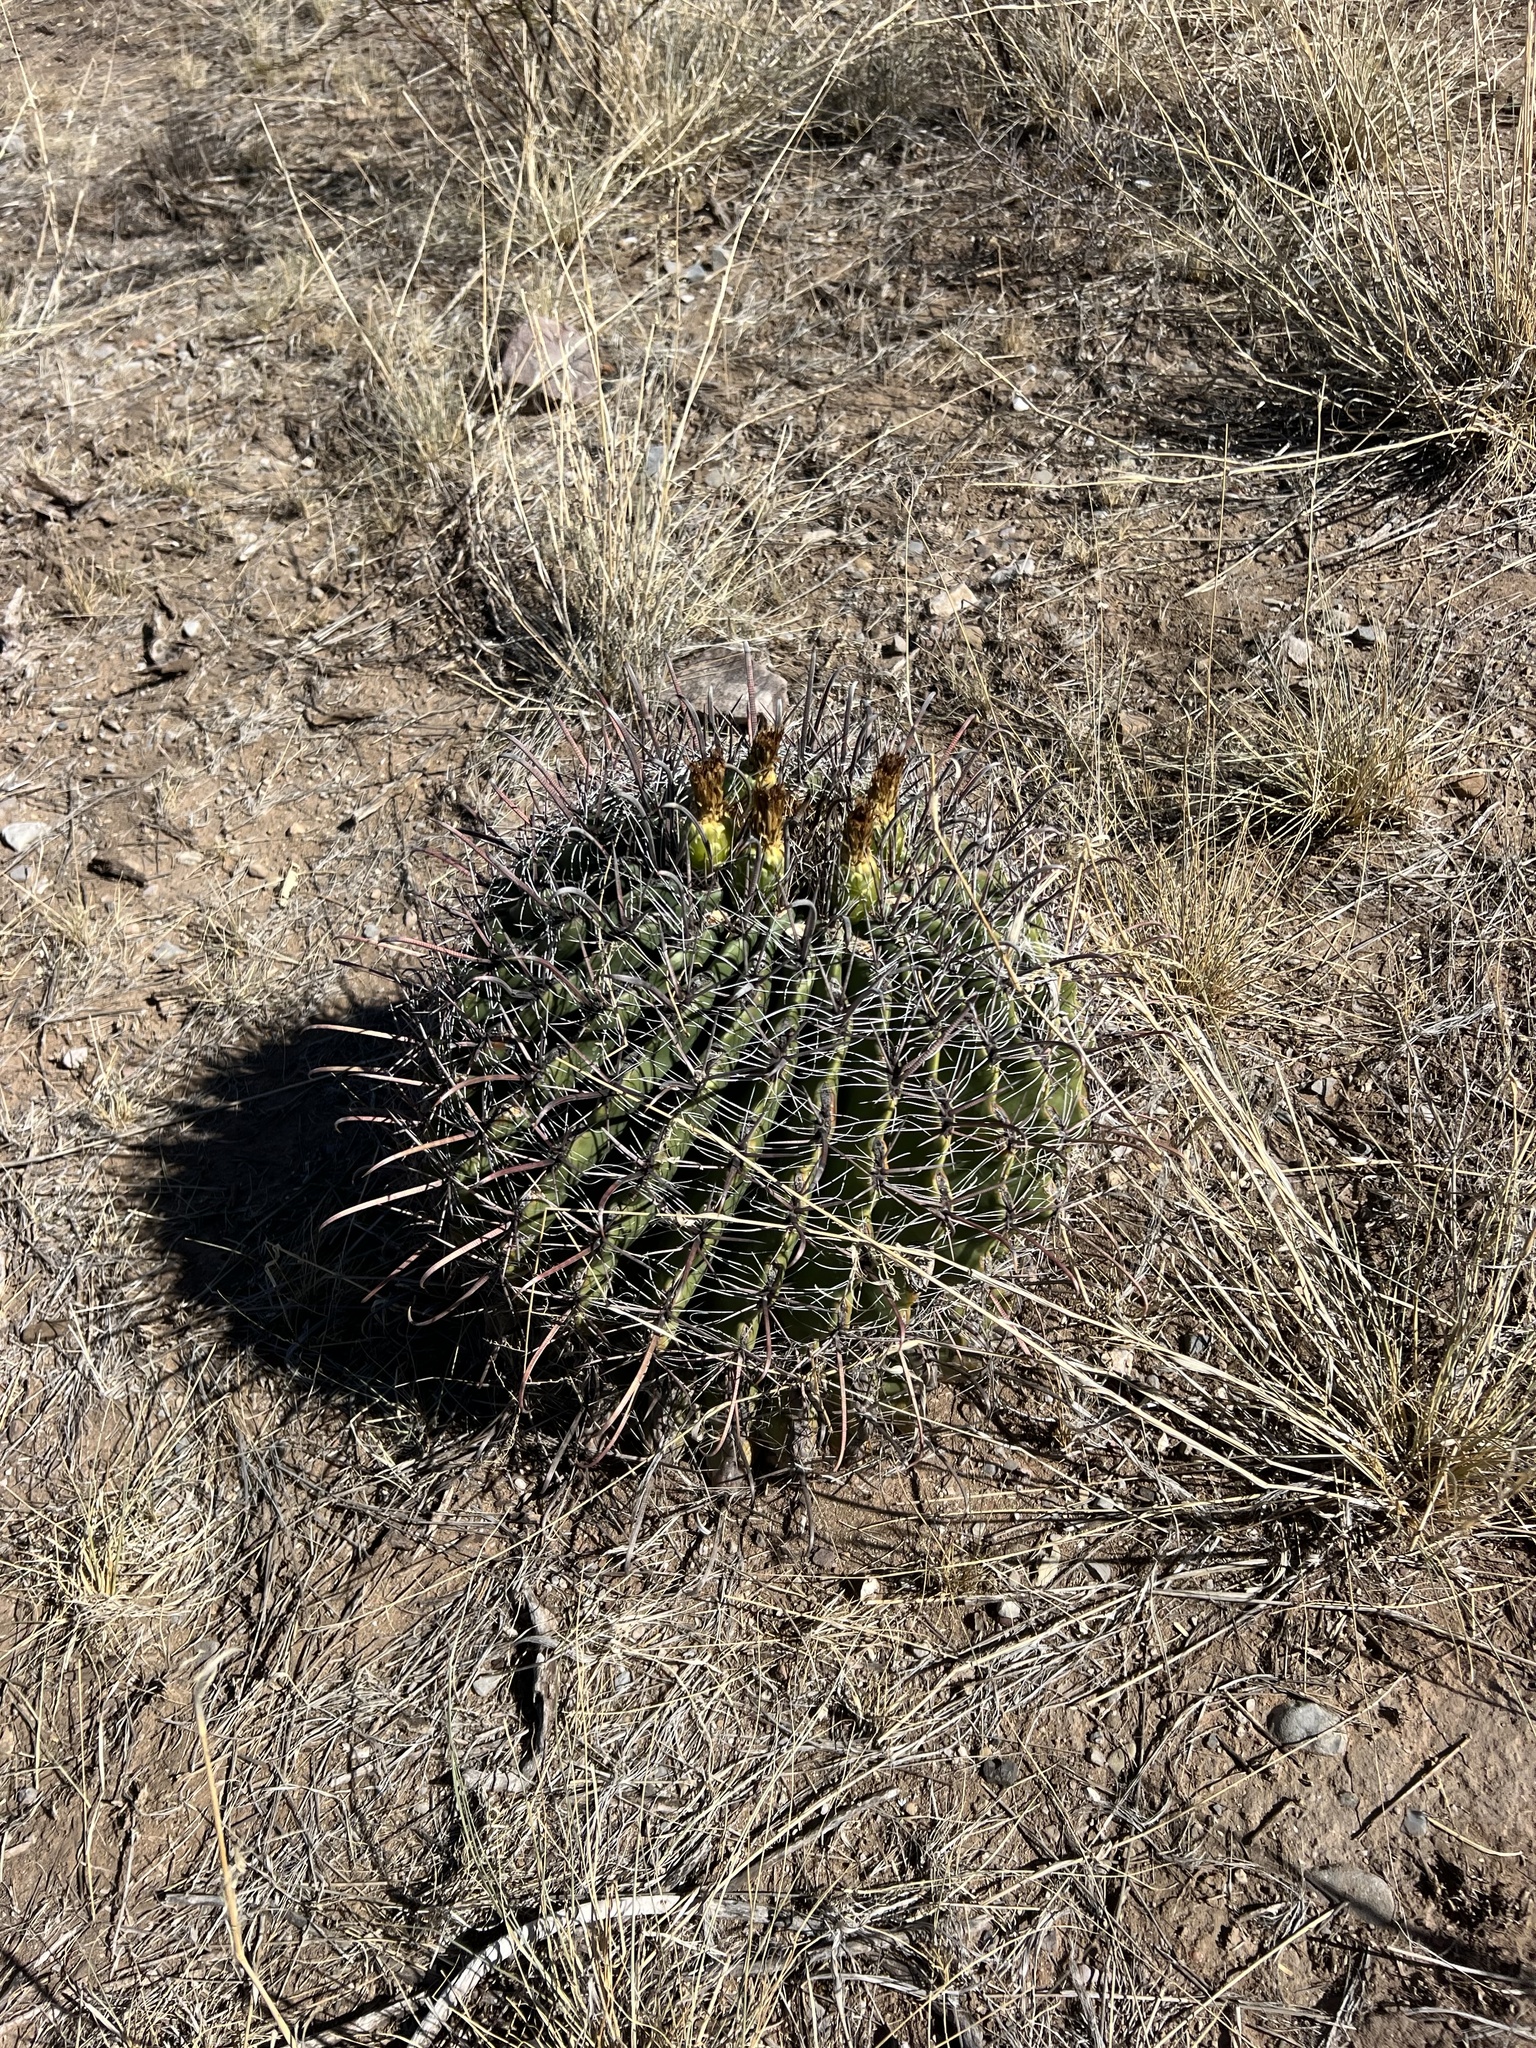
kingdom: Plantae
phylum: Tracheophyta
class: Magnoliopsida
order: Caryophyllales
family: Cactaceae
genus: Ferocactus
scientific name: Ferocactus wislizeni
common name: Candy barrel cactus
